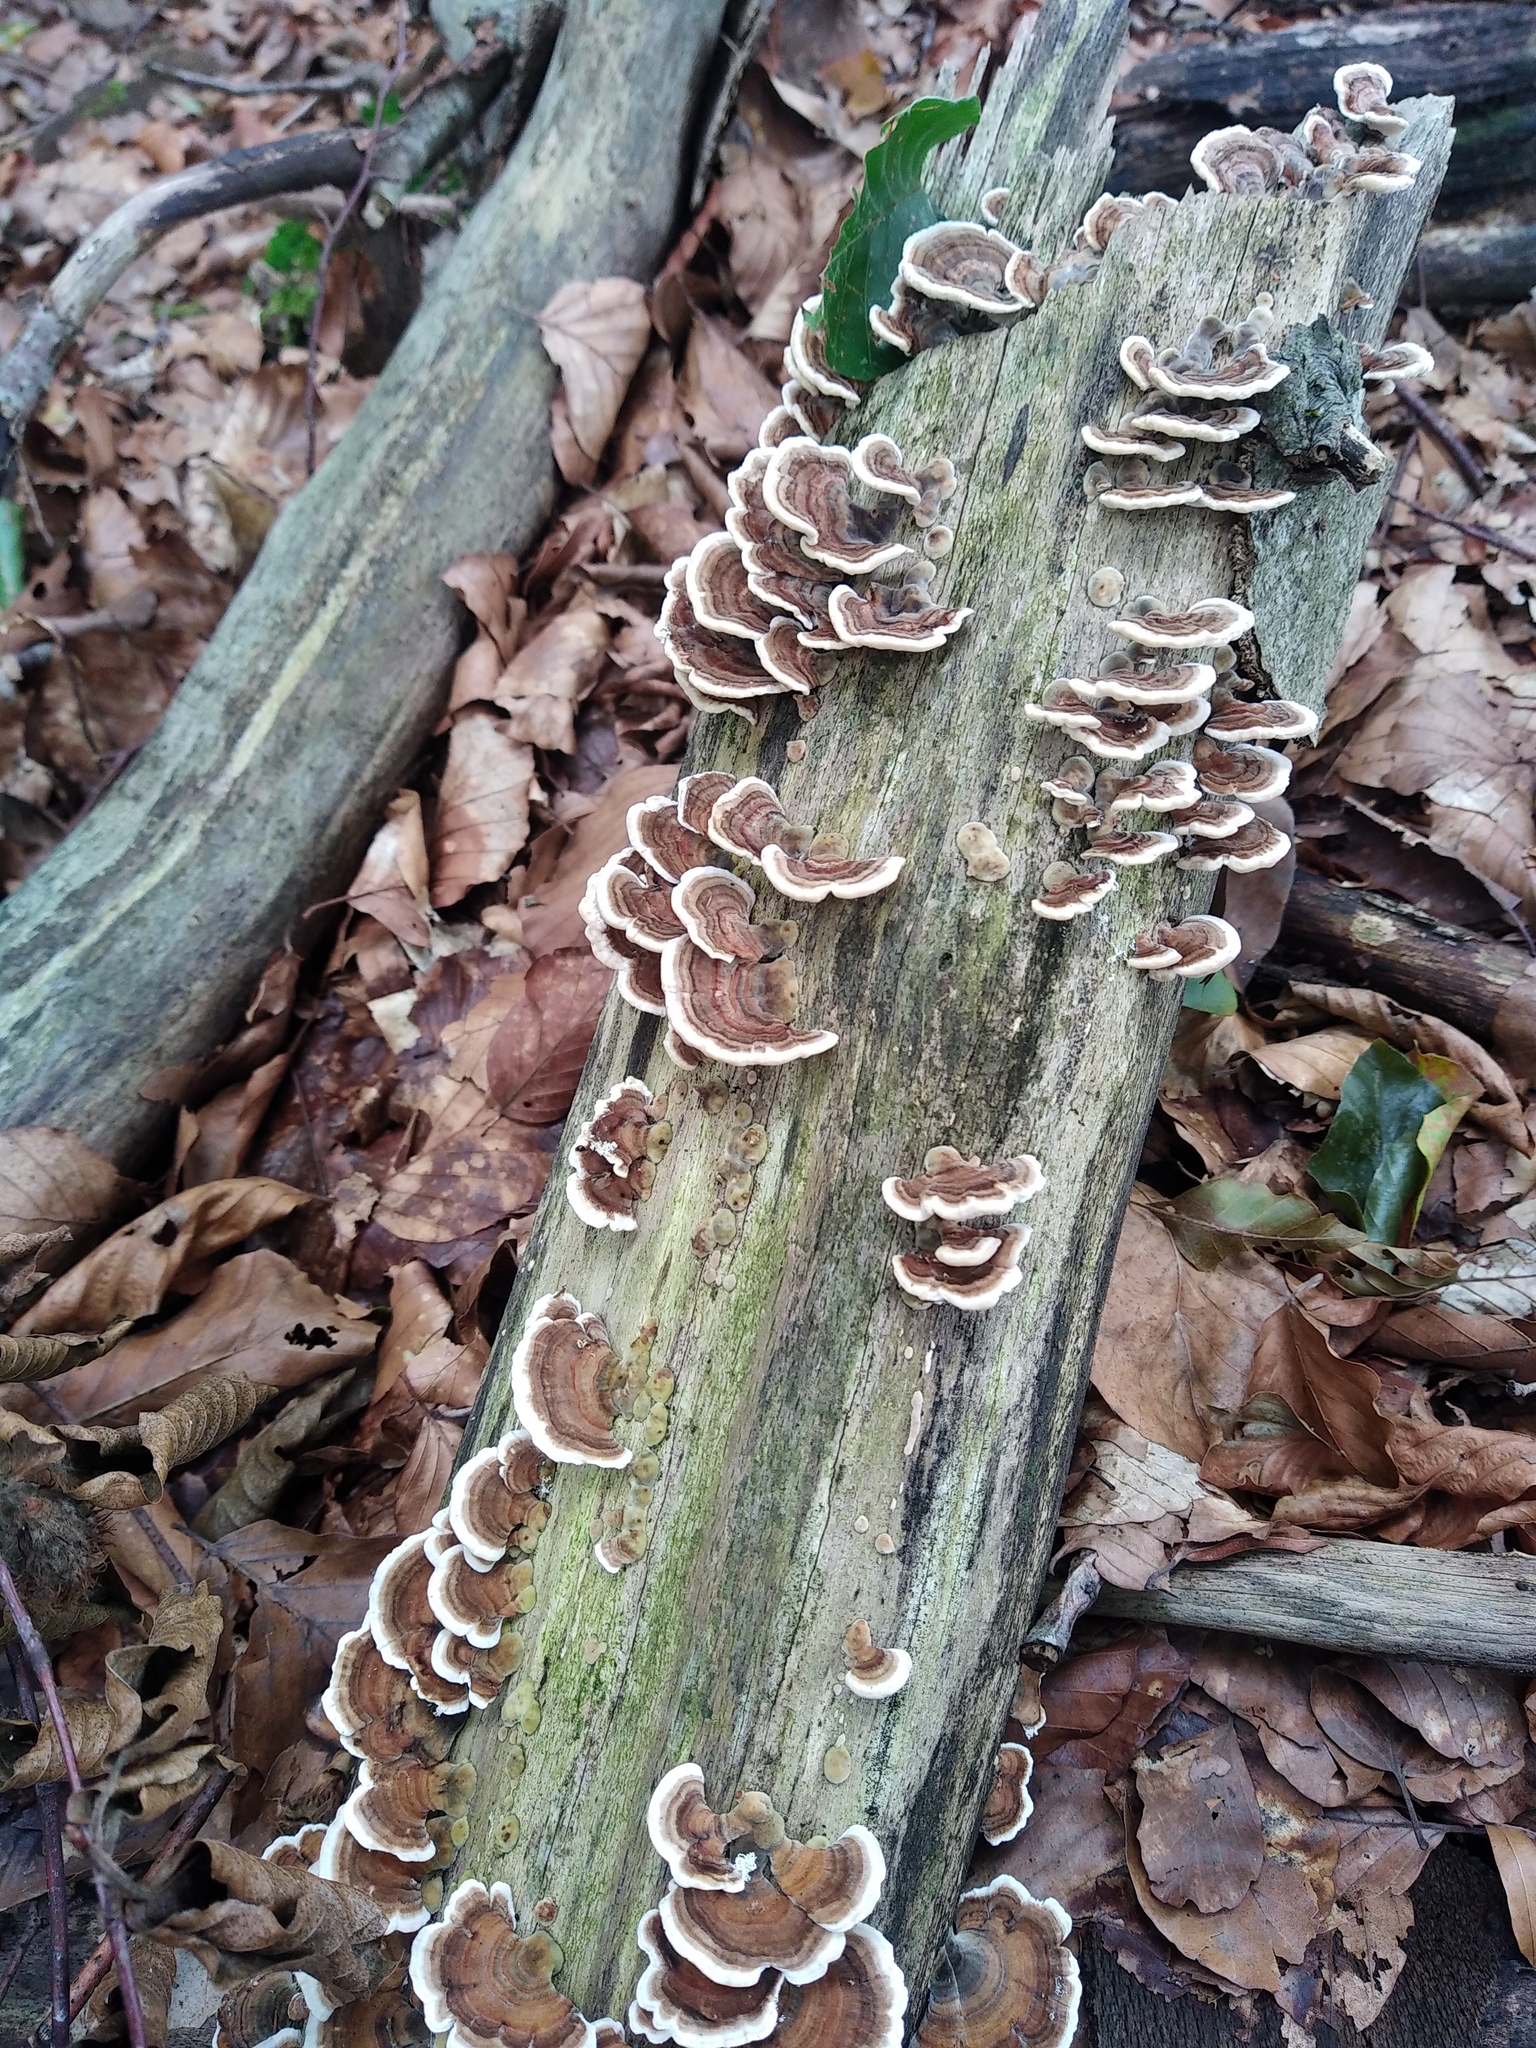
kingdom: Fungi
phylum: Basidiomycota
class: Agaricomycetes
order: Polyporales
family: Polyporaceae
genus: Trametes
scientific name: Trametes versicolor
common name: Turkeytail
